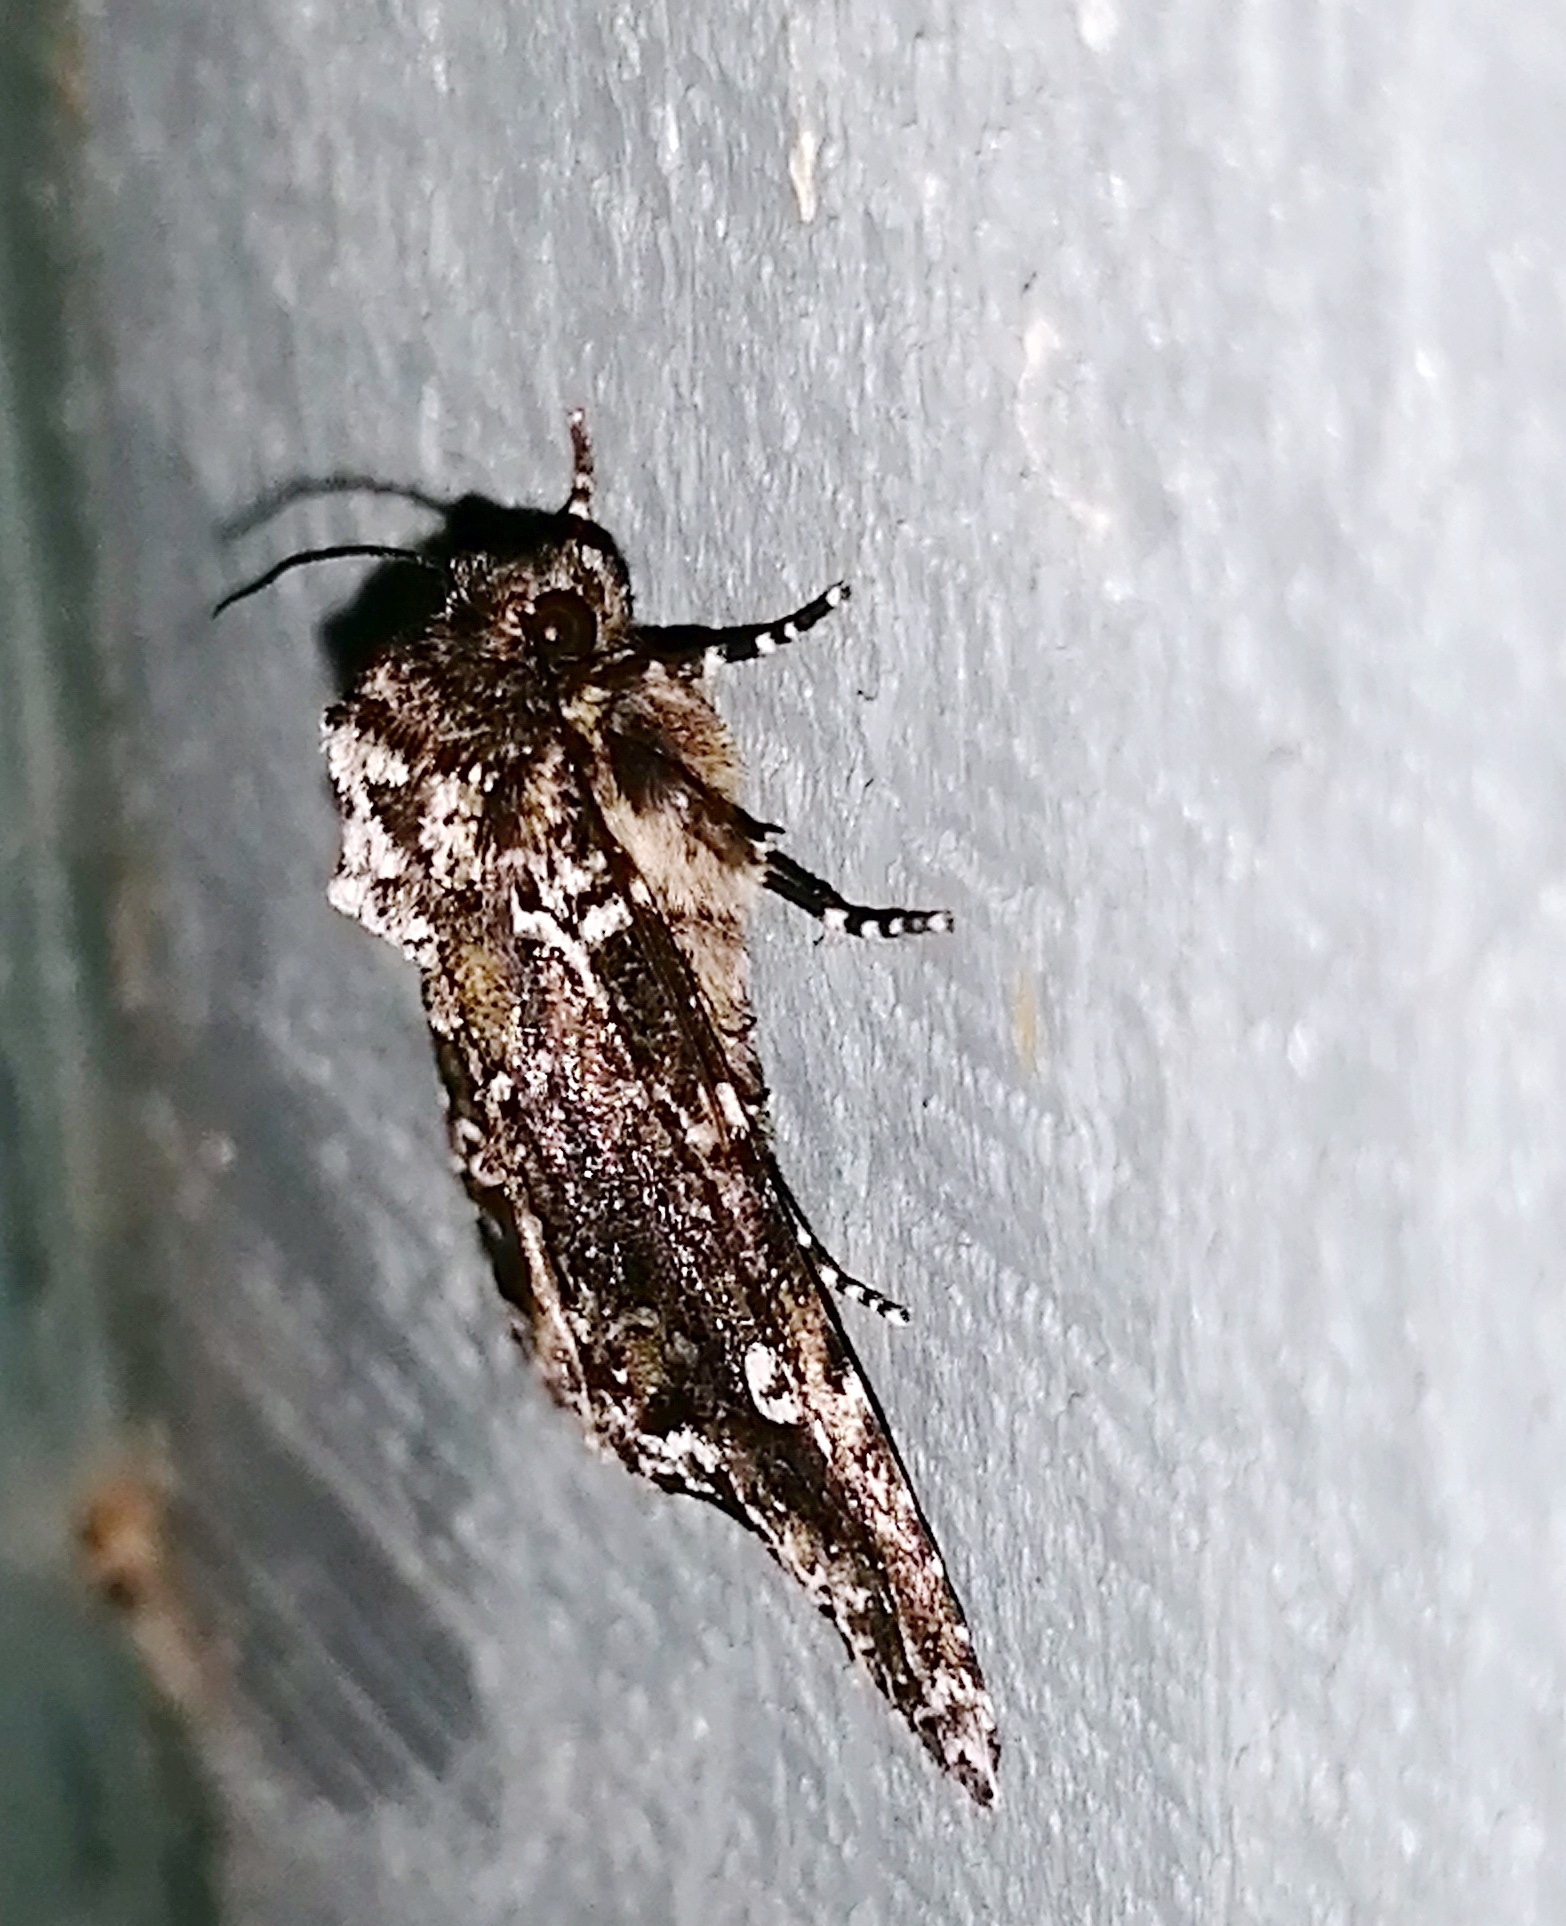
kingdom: Animalia
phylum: Arthropoda
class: Insecta
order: Lepidoptera
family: Noctuidae
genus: Melanchra
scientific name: Melanchra adjuncta
